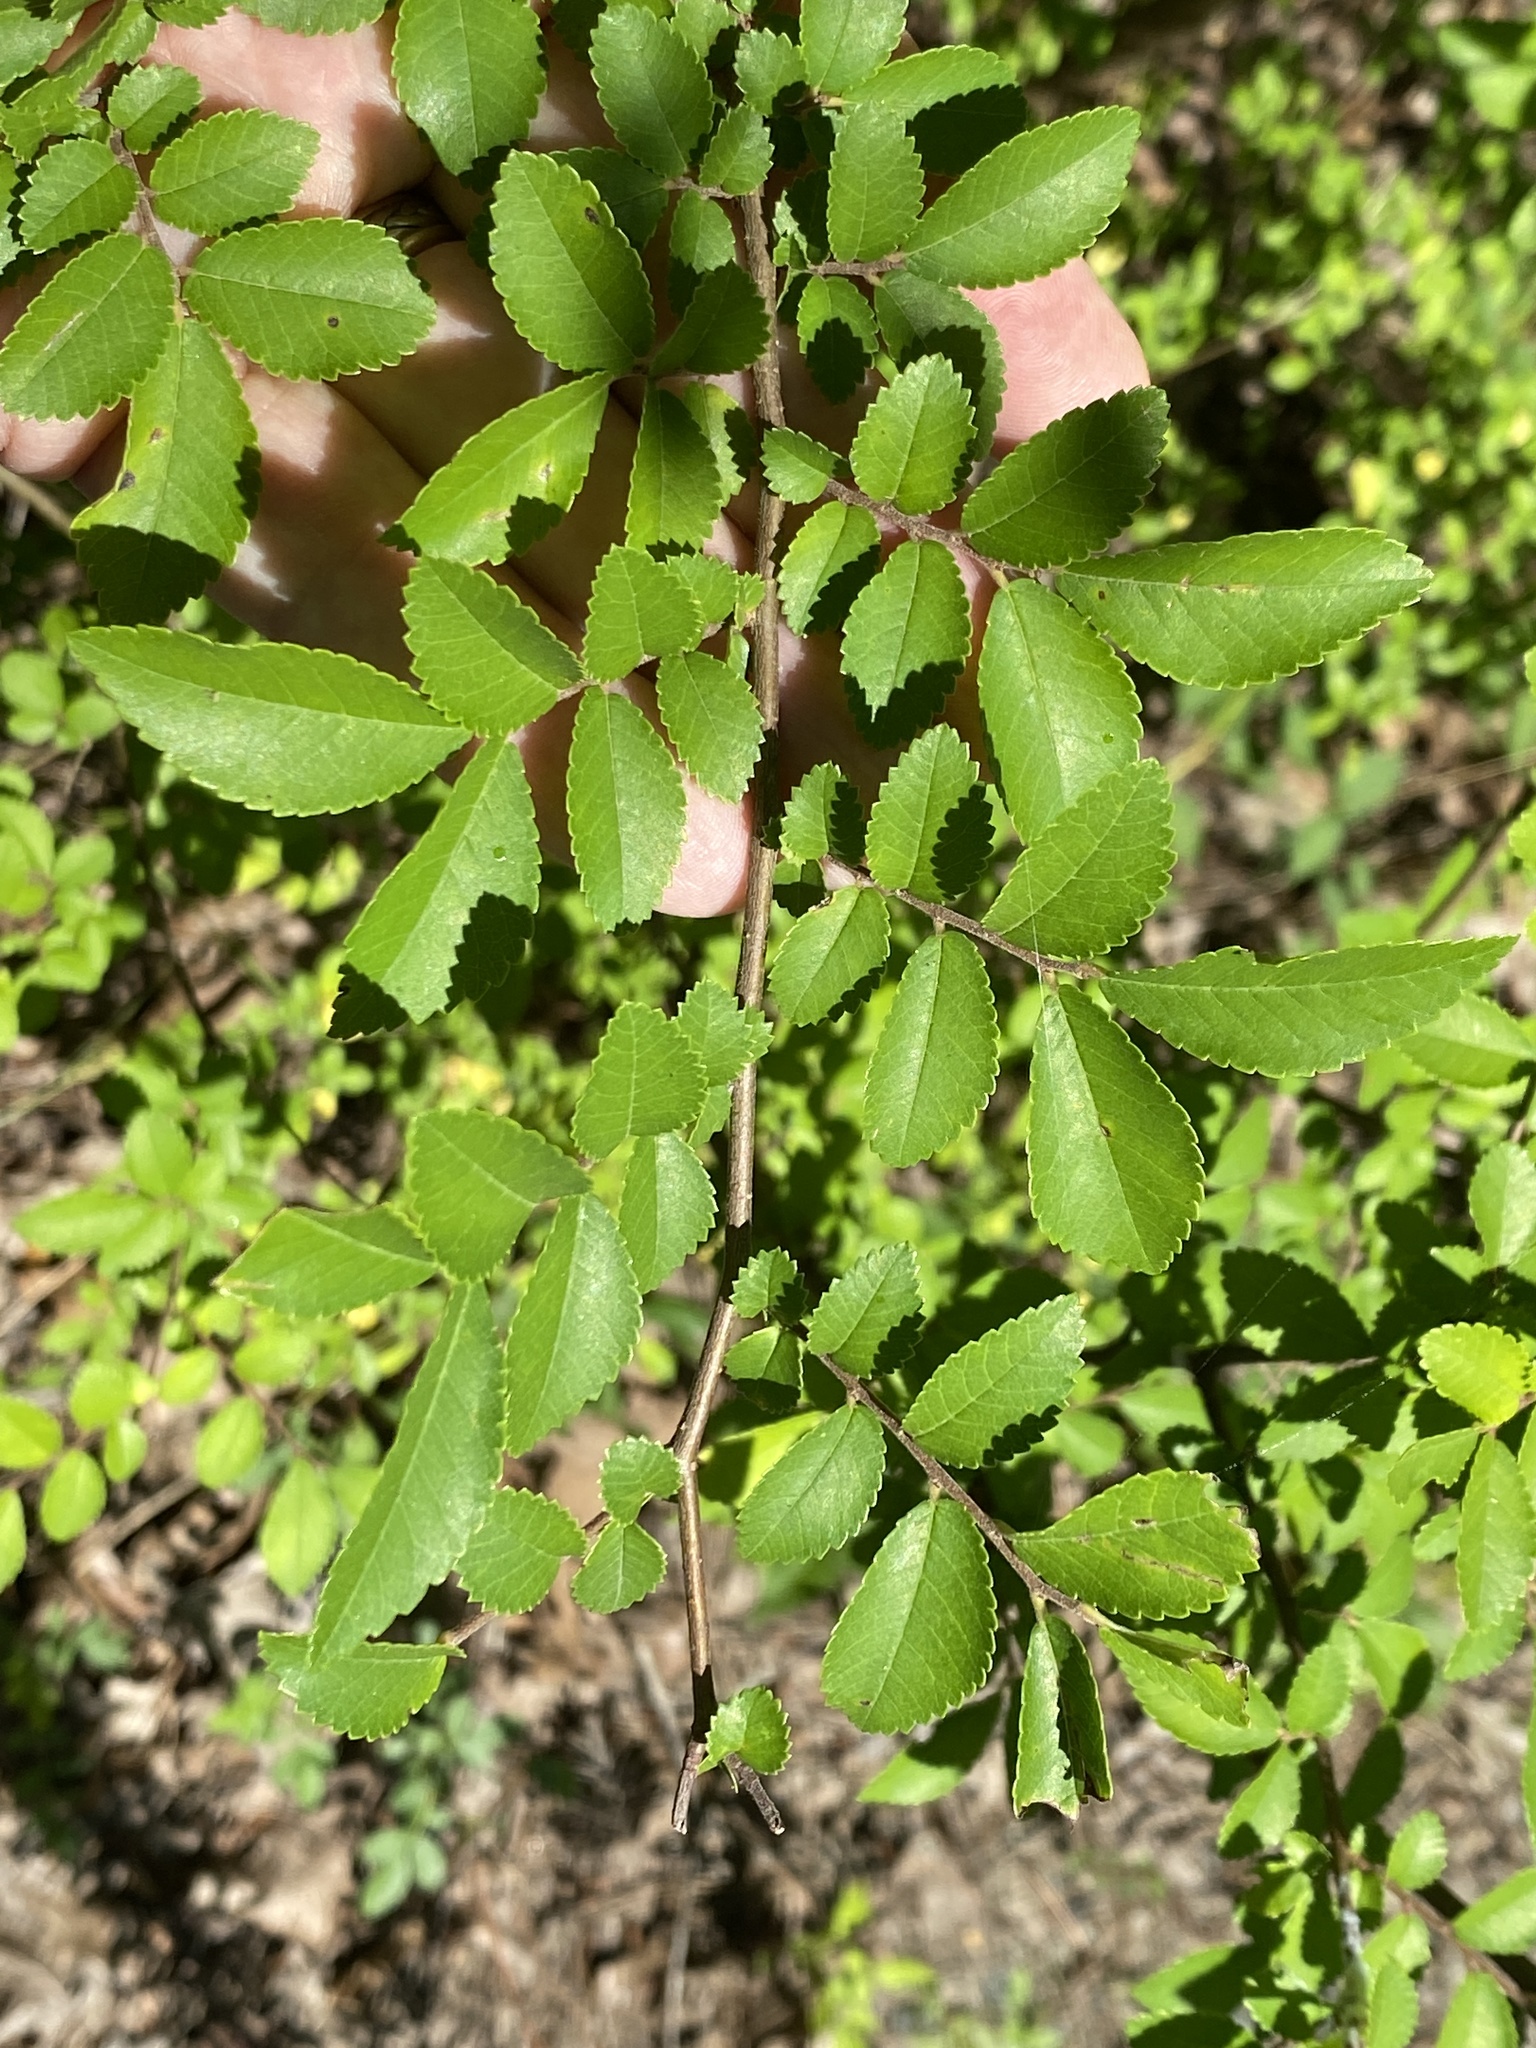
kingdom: Plantae
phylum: Tracheophyta
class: Magnoliopsida
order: Rosales
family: Ulmaceae
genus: Ulmus
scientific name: Ulmus parvifolia
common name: Chinese elm
